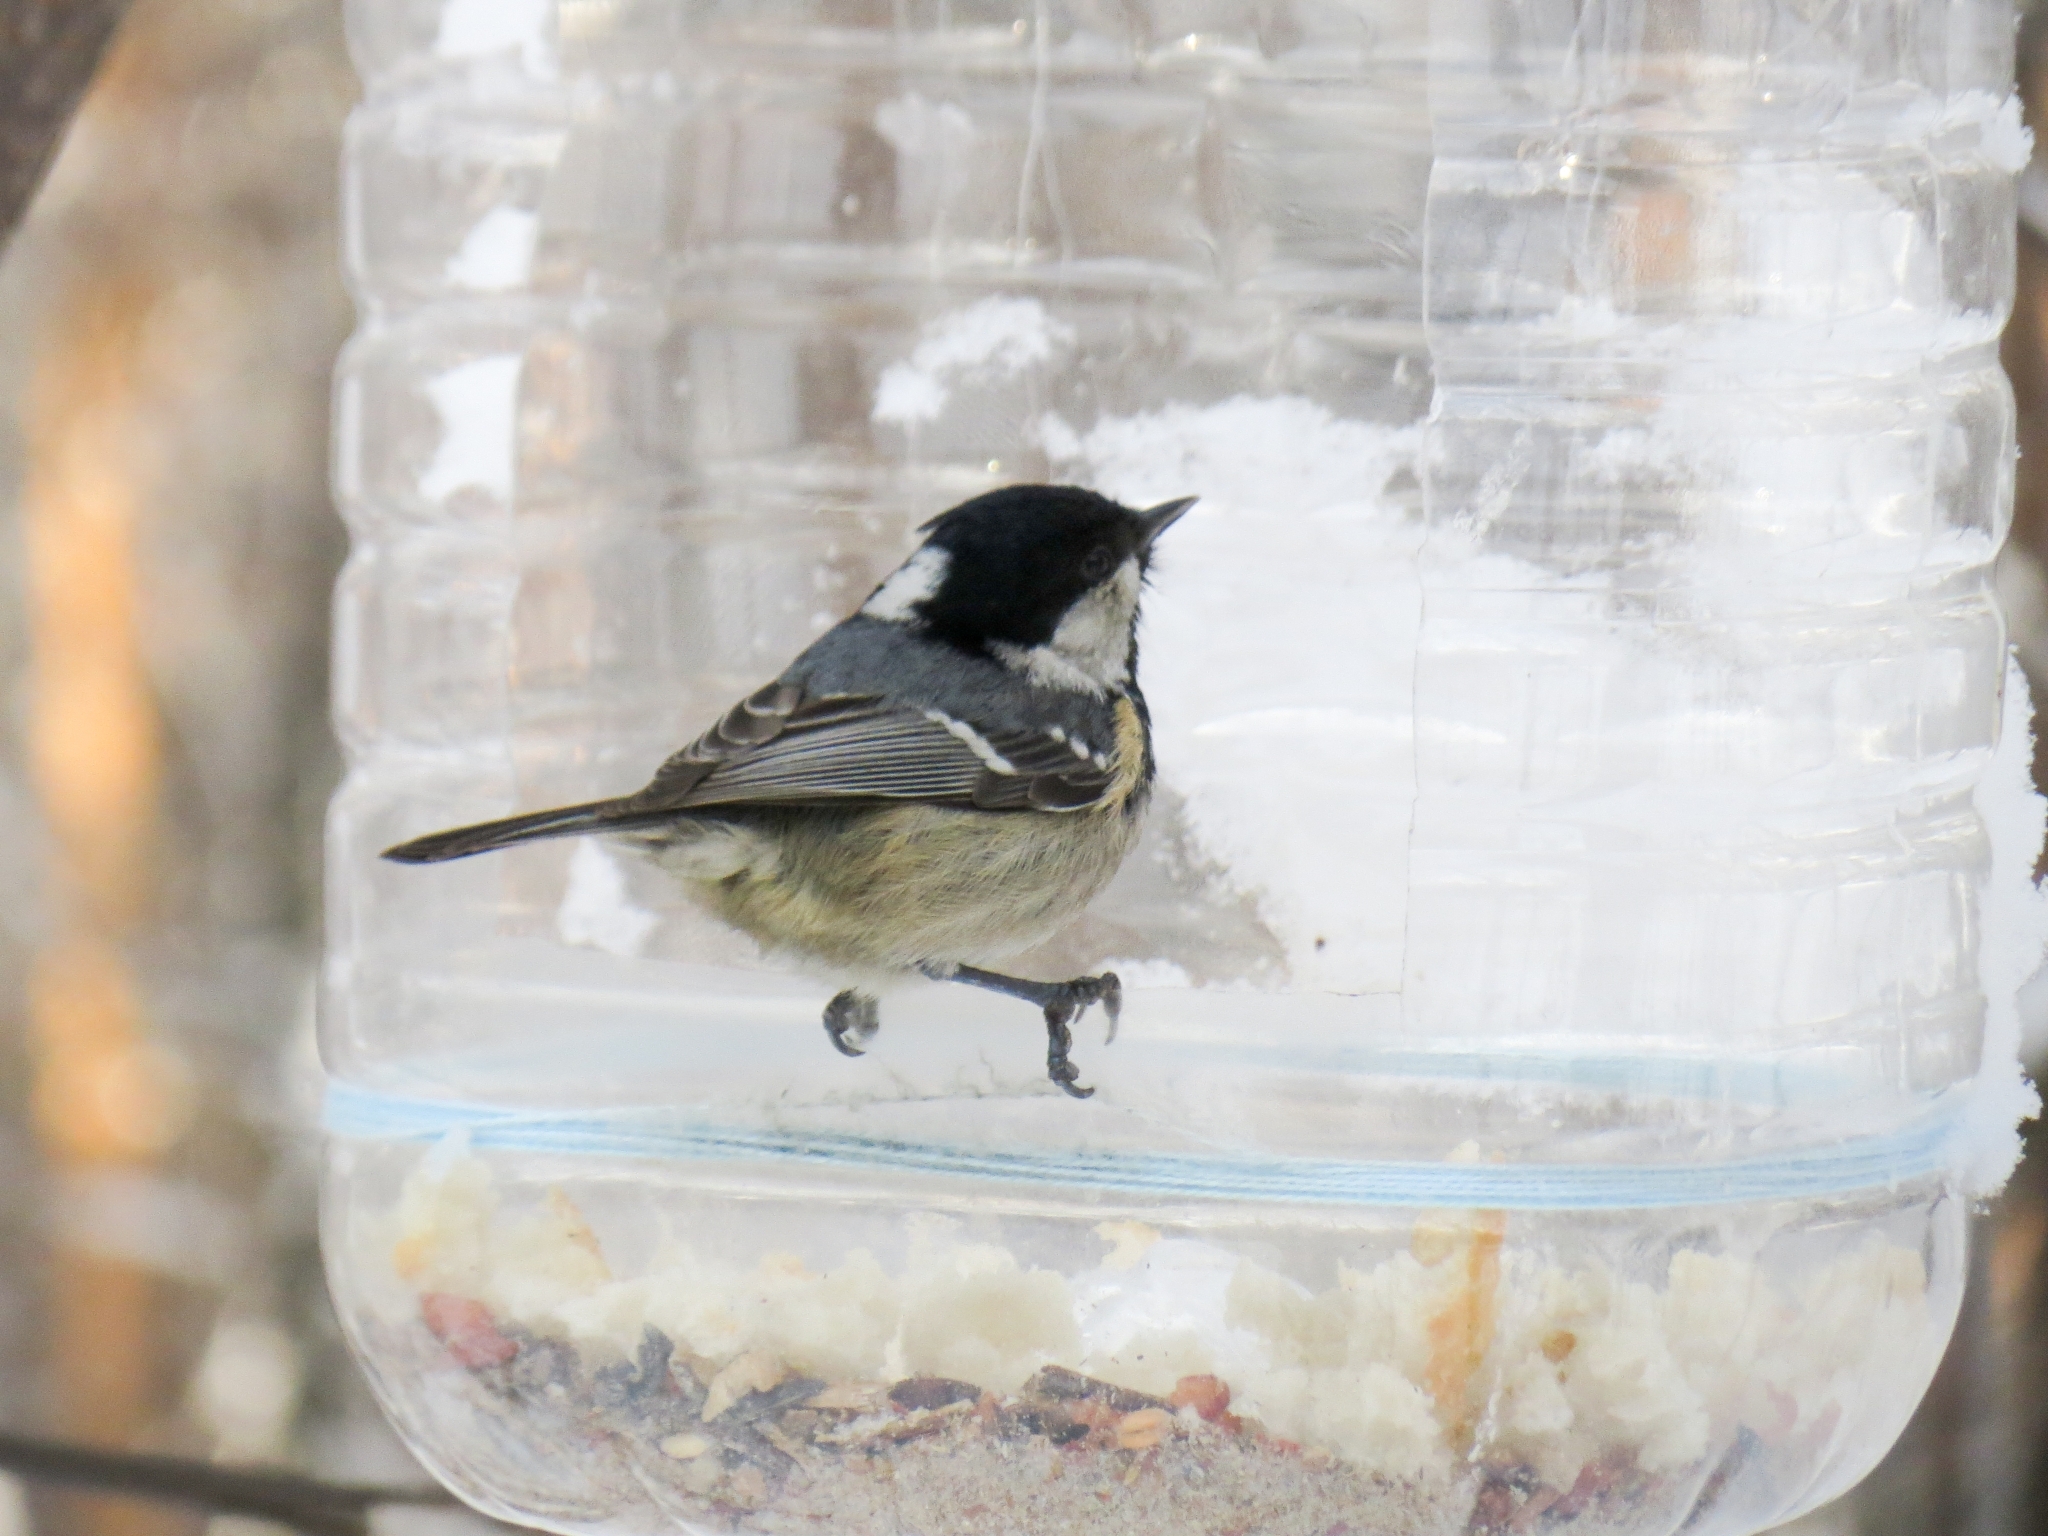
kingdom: Animalia
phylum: Chordata
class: Aves
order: Passeriformes
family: Paridae
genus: Periparus
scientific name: Periparus ater
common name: Coal tit
